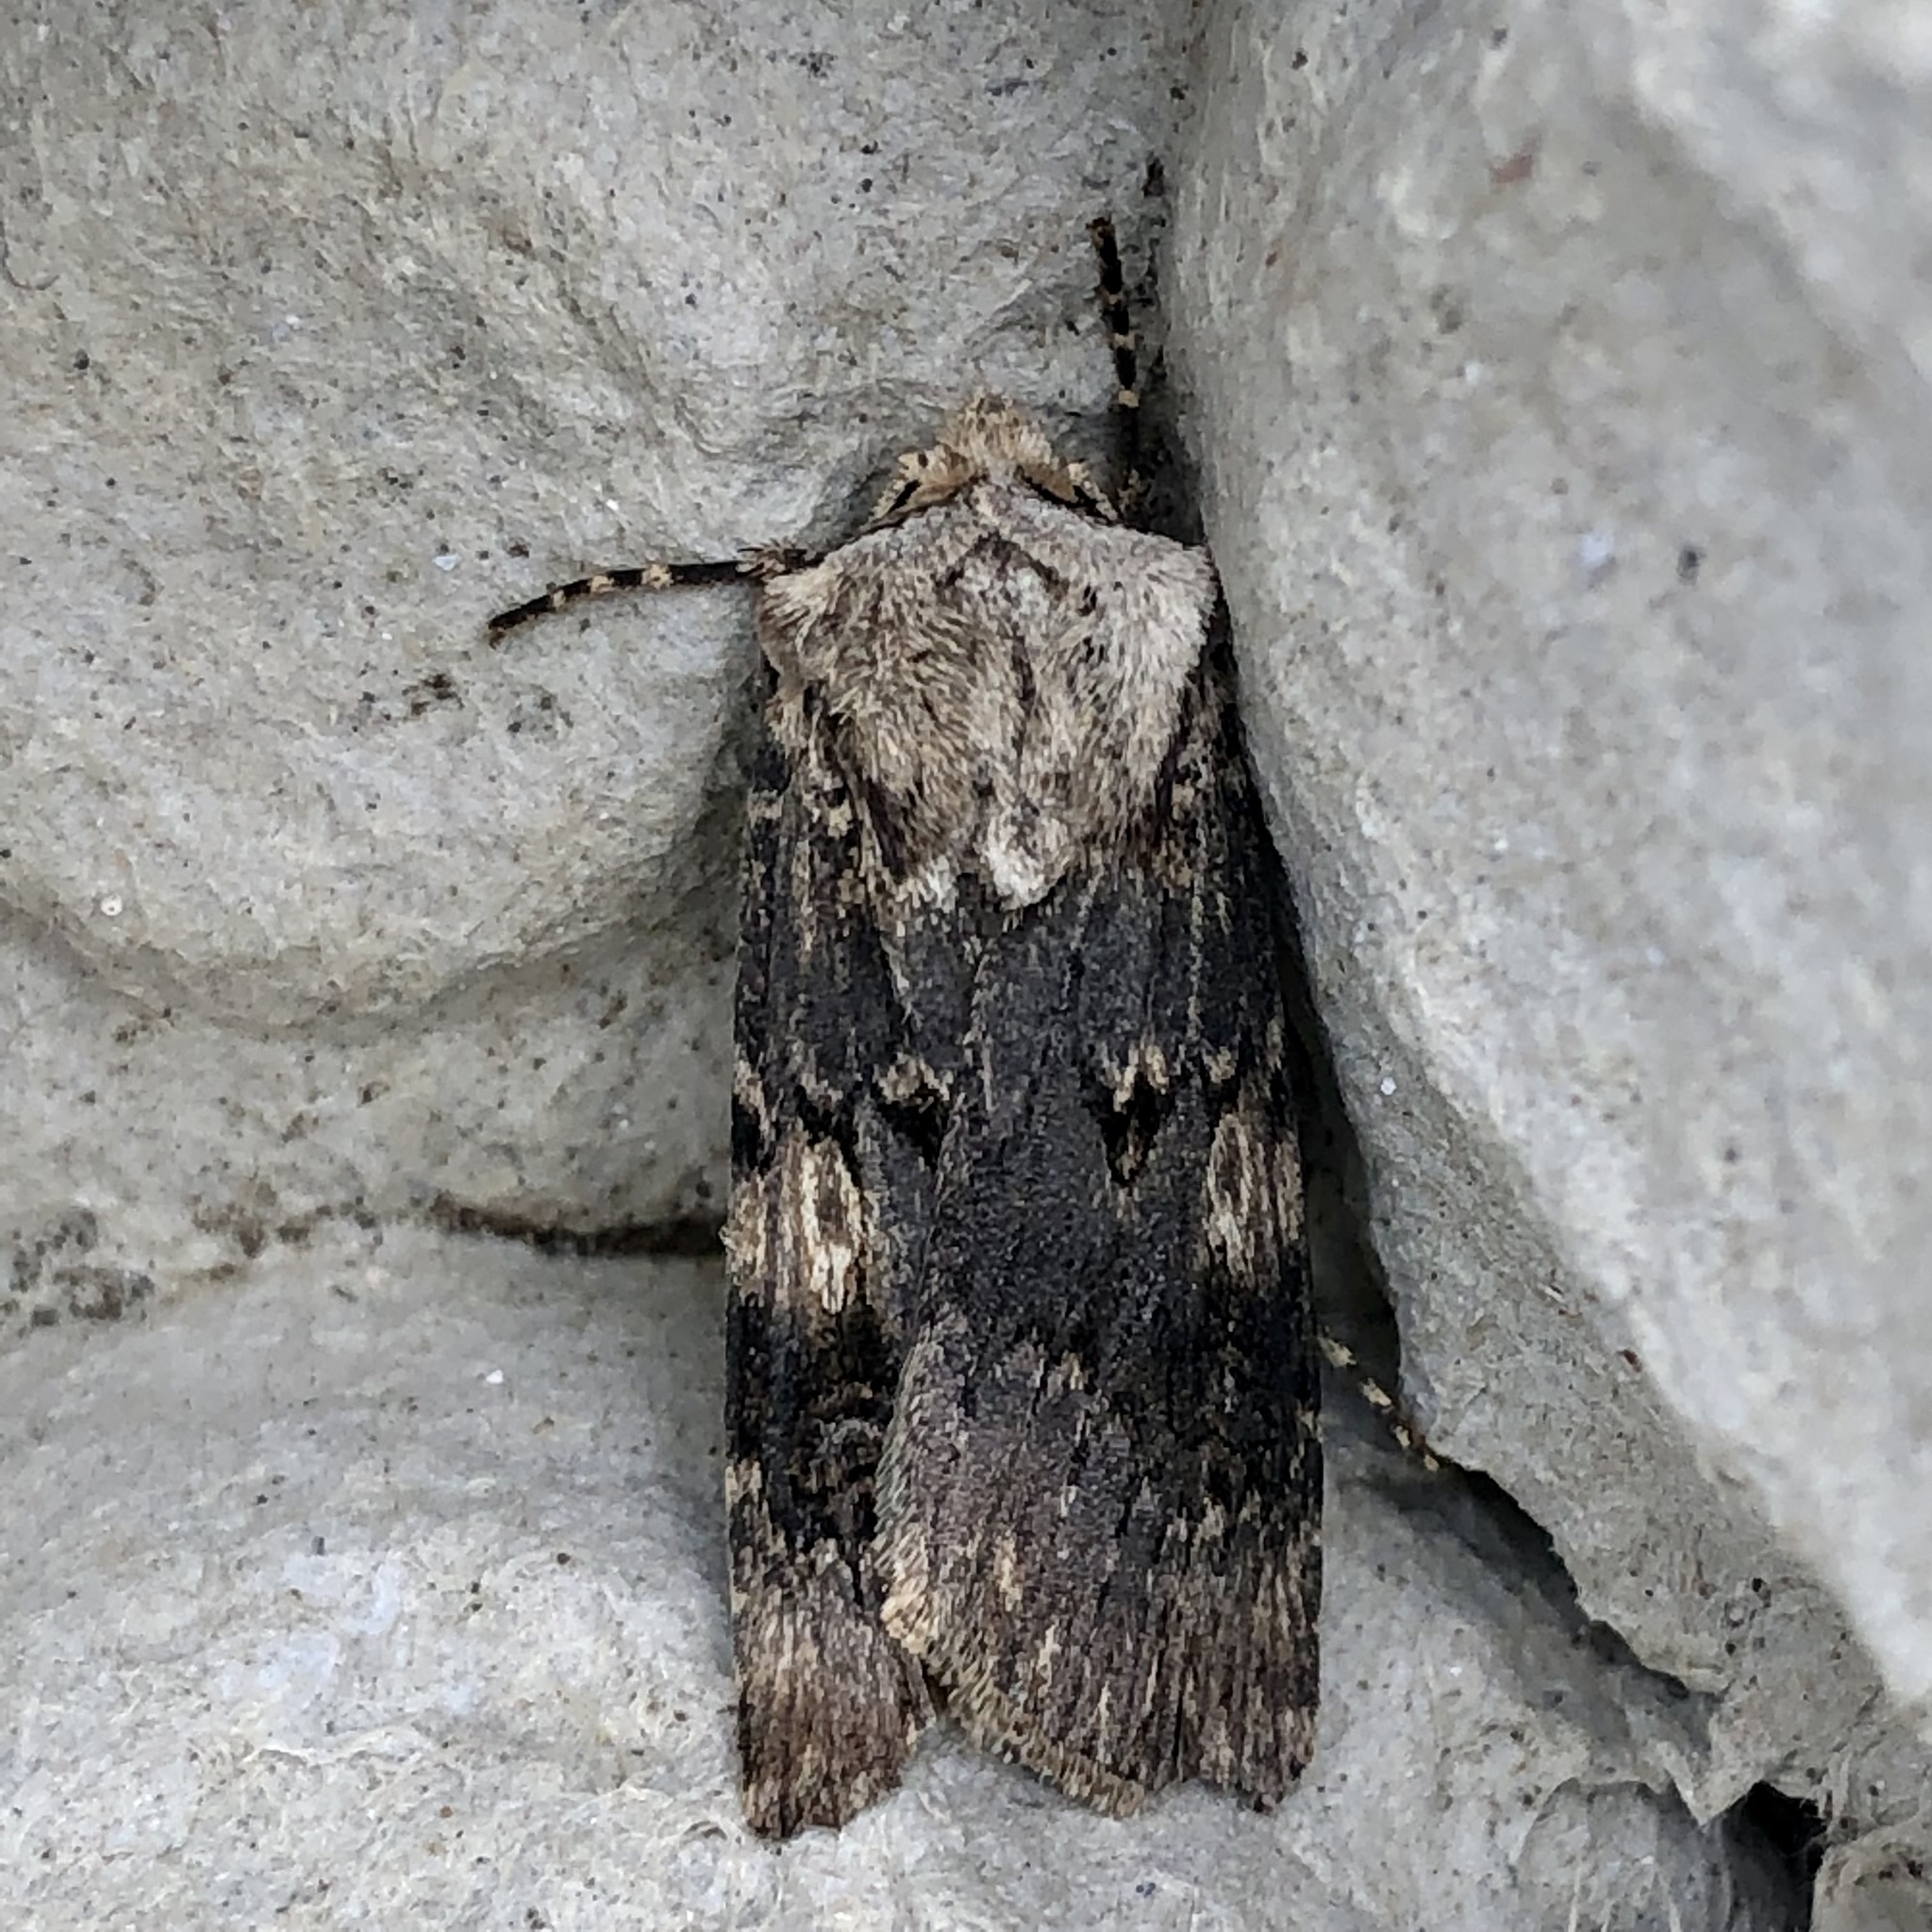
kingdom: Animalia
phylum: Arthropoda
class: Insecta
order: Lepidoptera
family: Noctuidae
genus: Agrotis
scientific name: Agrotis puta
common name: Shuttle-shaped dart
